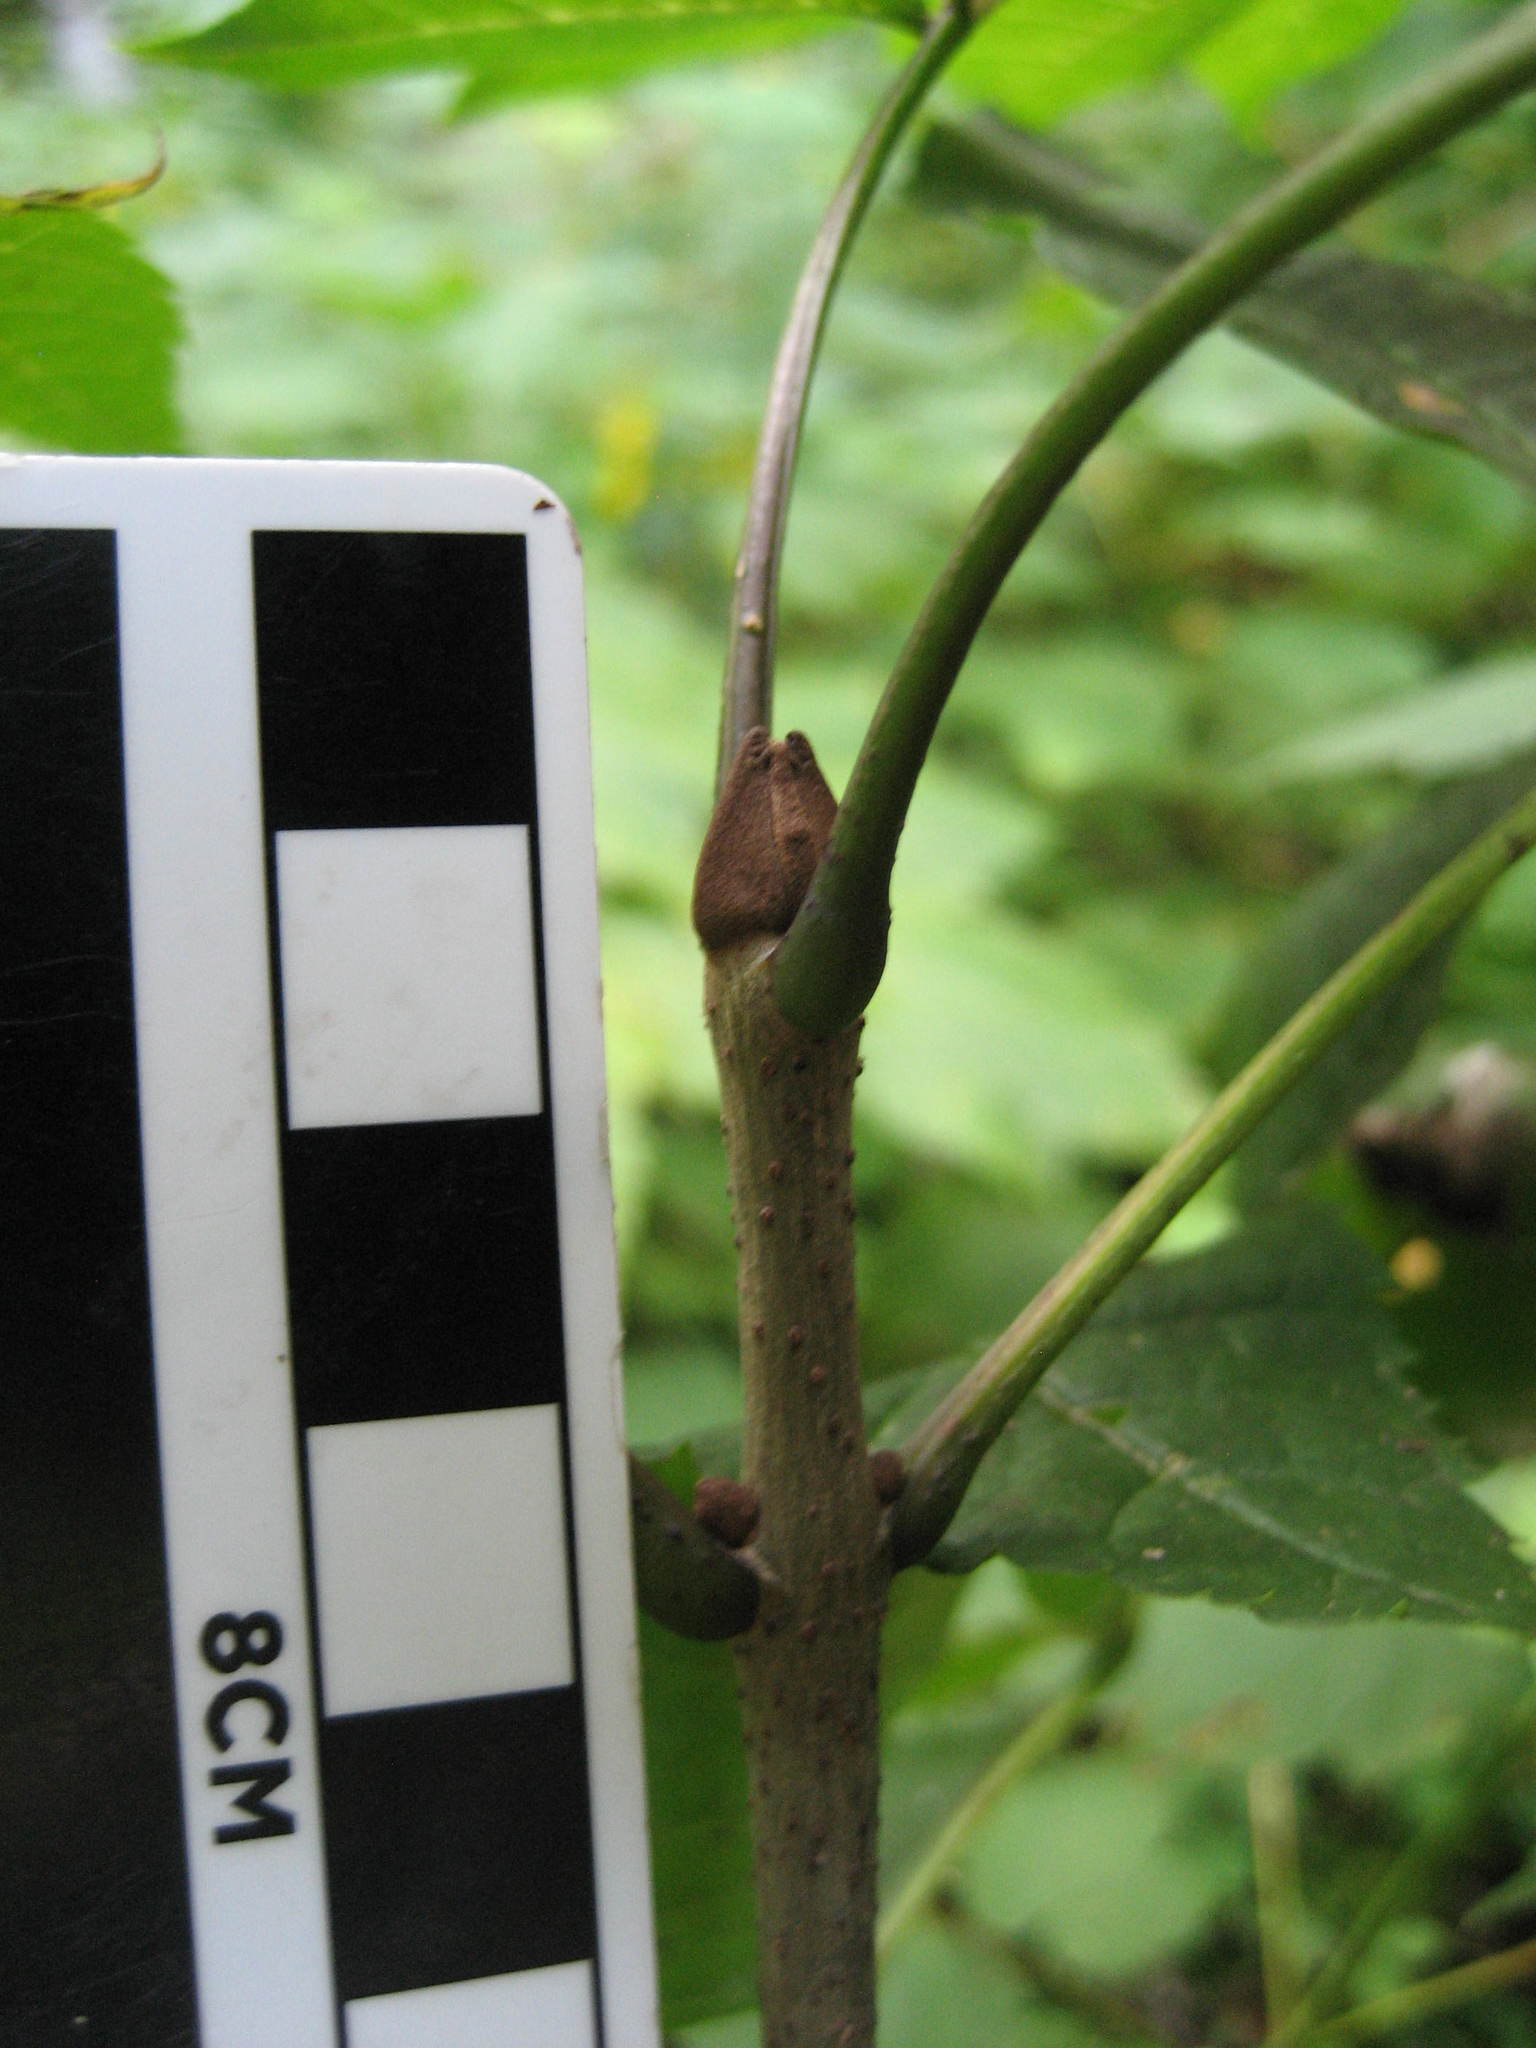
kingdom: Plantae
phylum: Tracheophyta
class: Magnoliopsida
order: Lamiales
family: Oleaceae
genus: Fraxinus
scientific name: Fraxinus nigra
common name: Black ash
